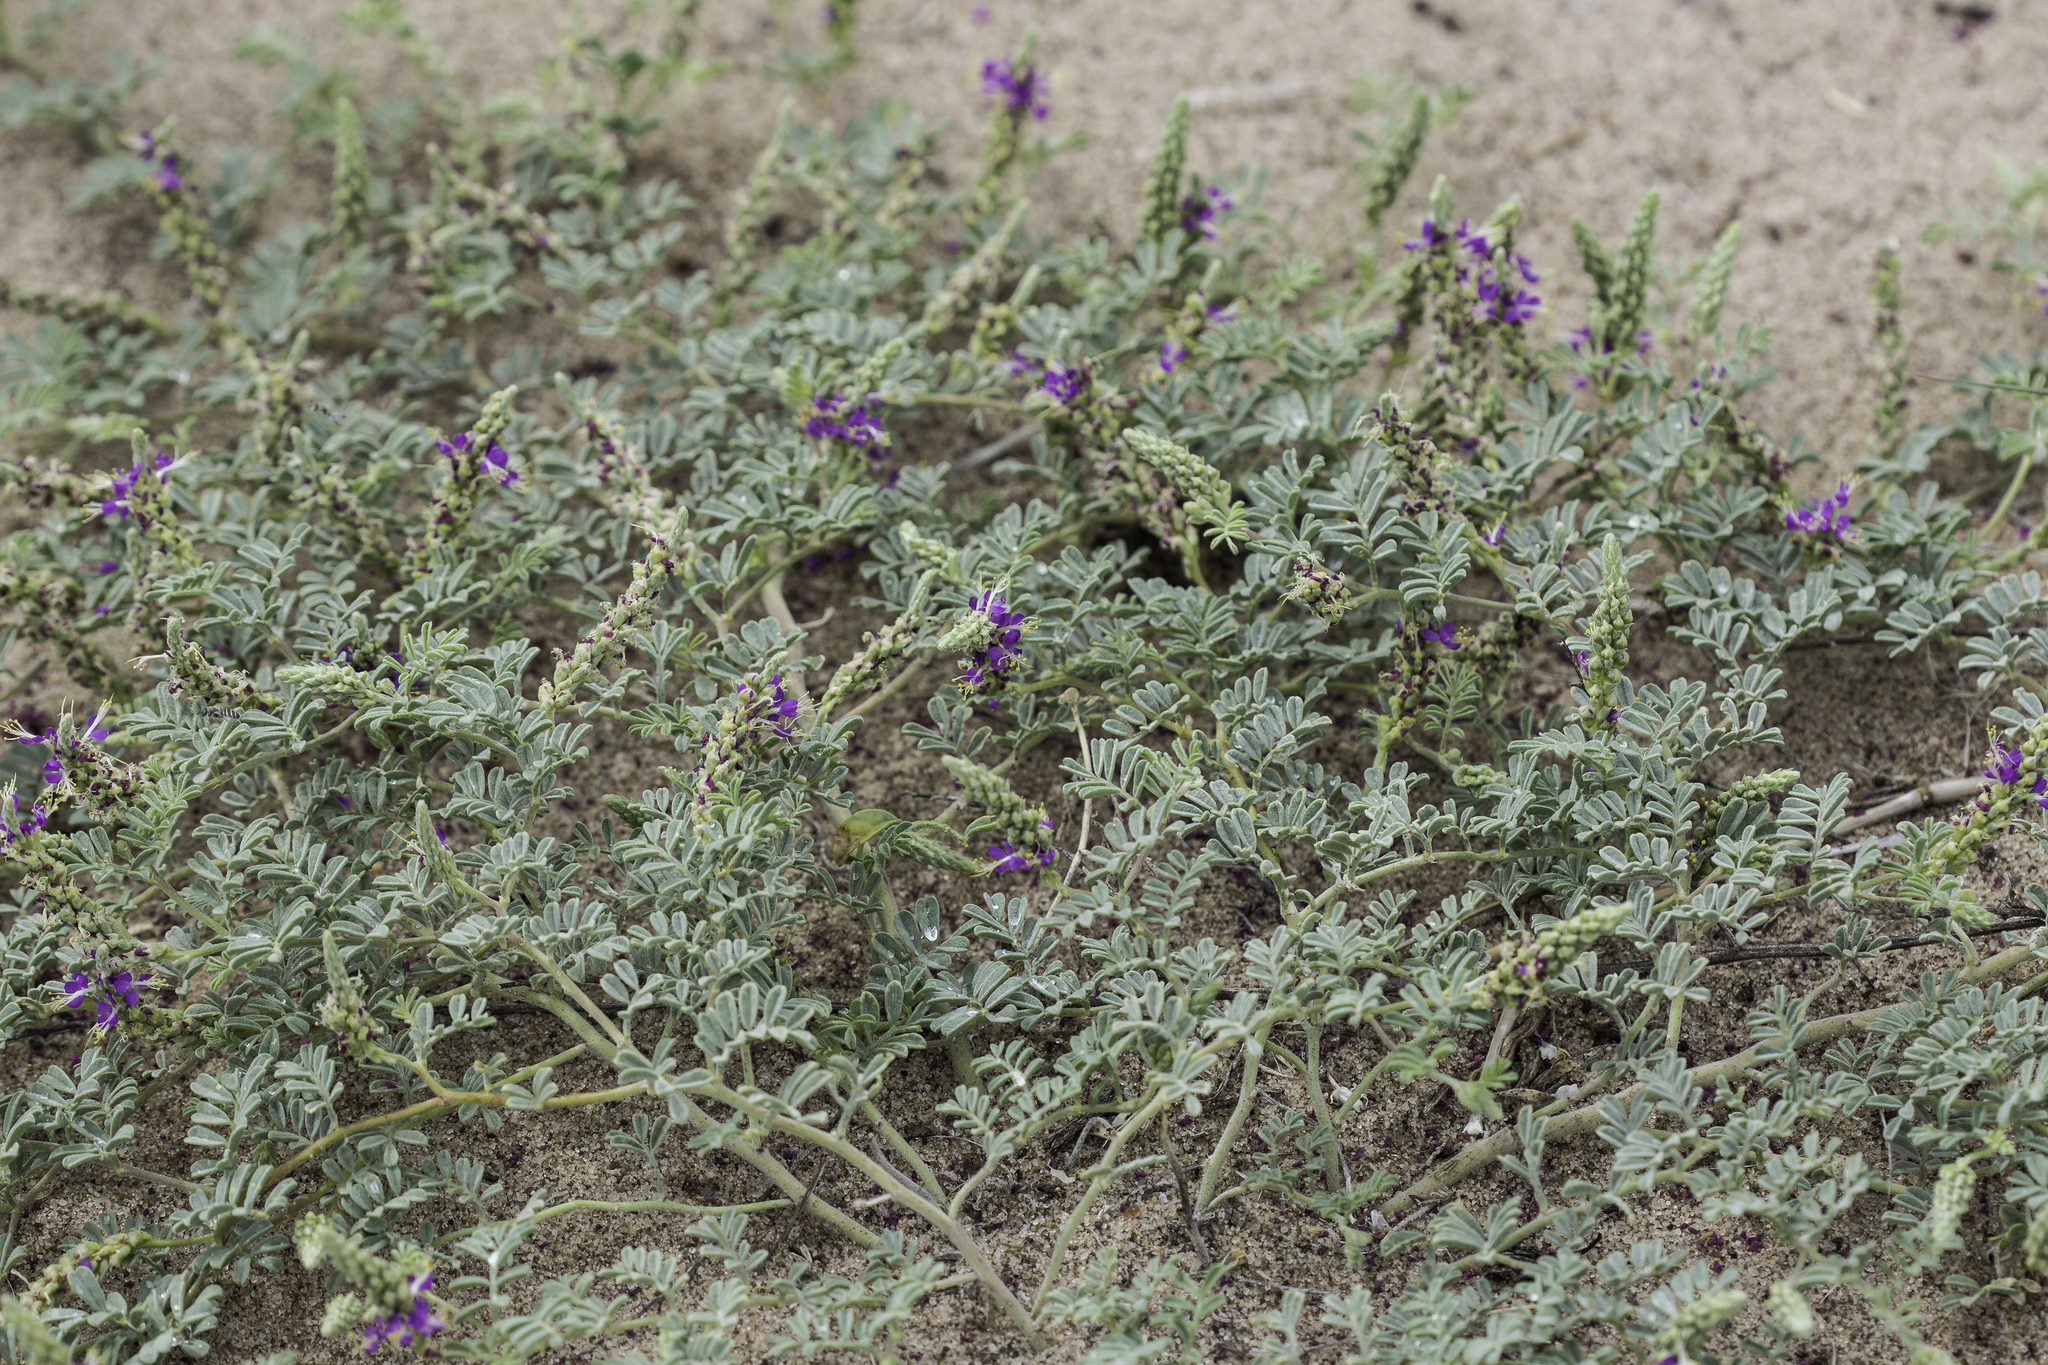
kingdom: Plantae
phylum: Tracheophyta
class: Magnoliopsida
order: Fabales
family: Fabaceae
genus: Dalea
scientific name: Dalea lanata
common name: Woolly dalea
